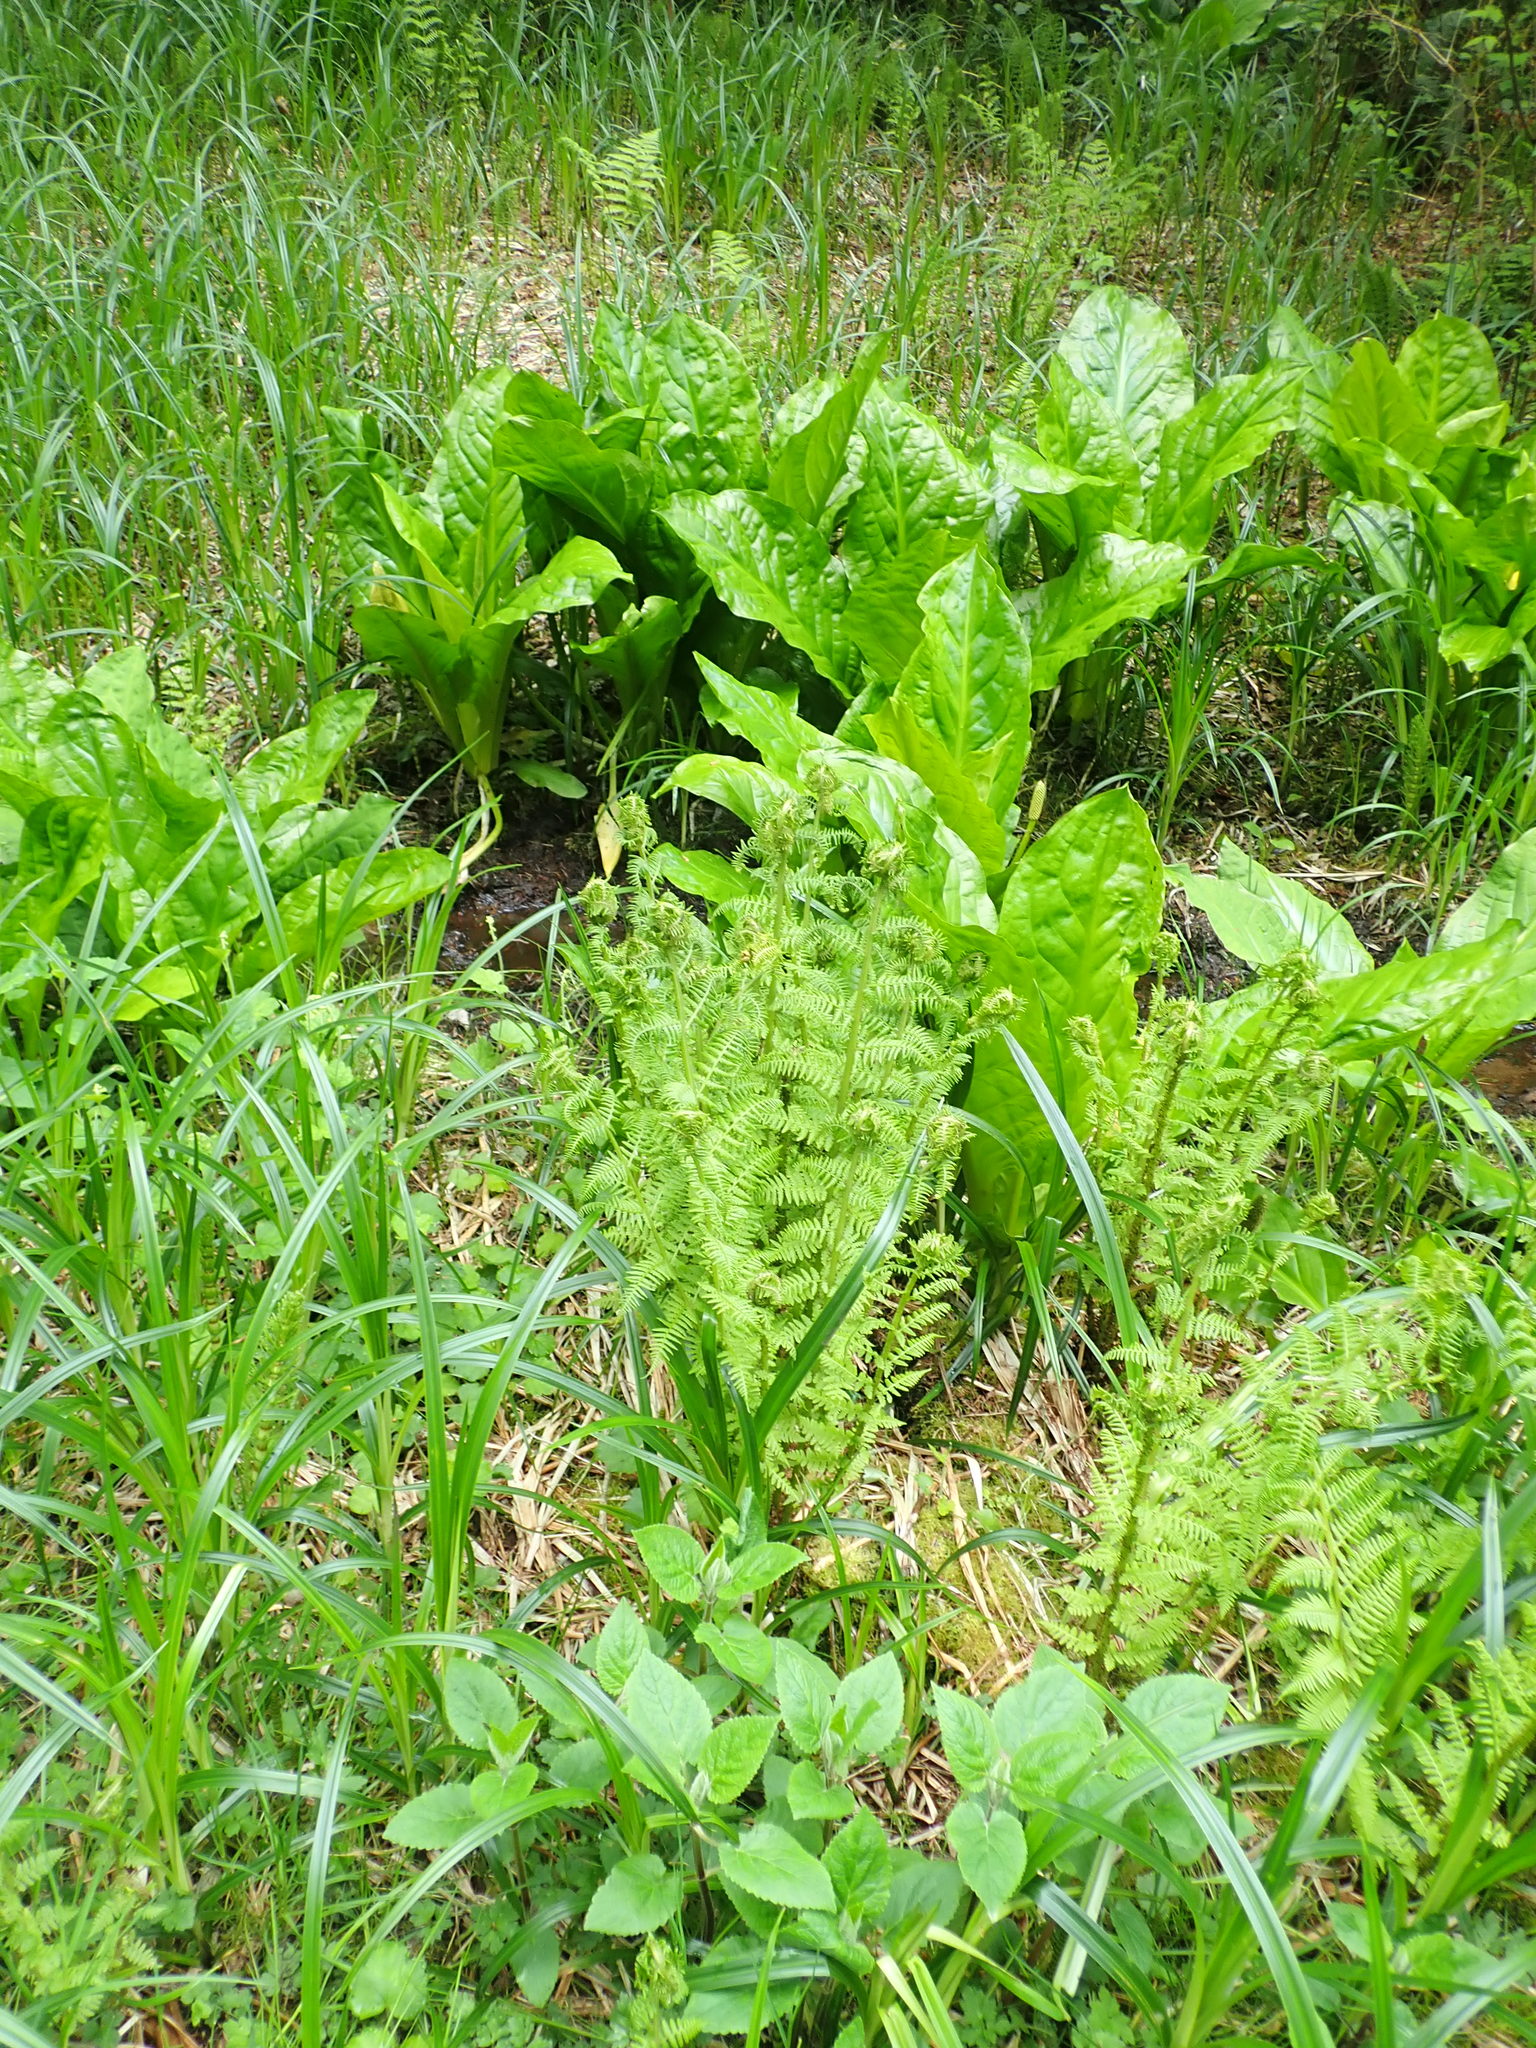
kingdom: Plantae
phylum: Tracheophyta
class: Polypodiopsida
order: Polypodiales
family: Athyriaceae
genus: Athyrium
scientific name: Athyrium filix-femina
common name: Lady fern
